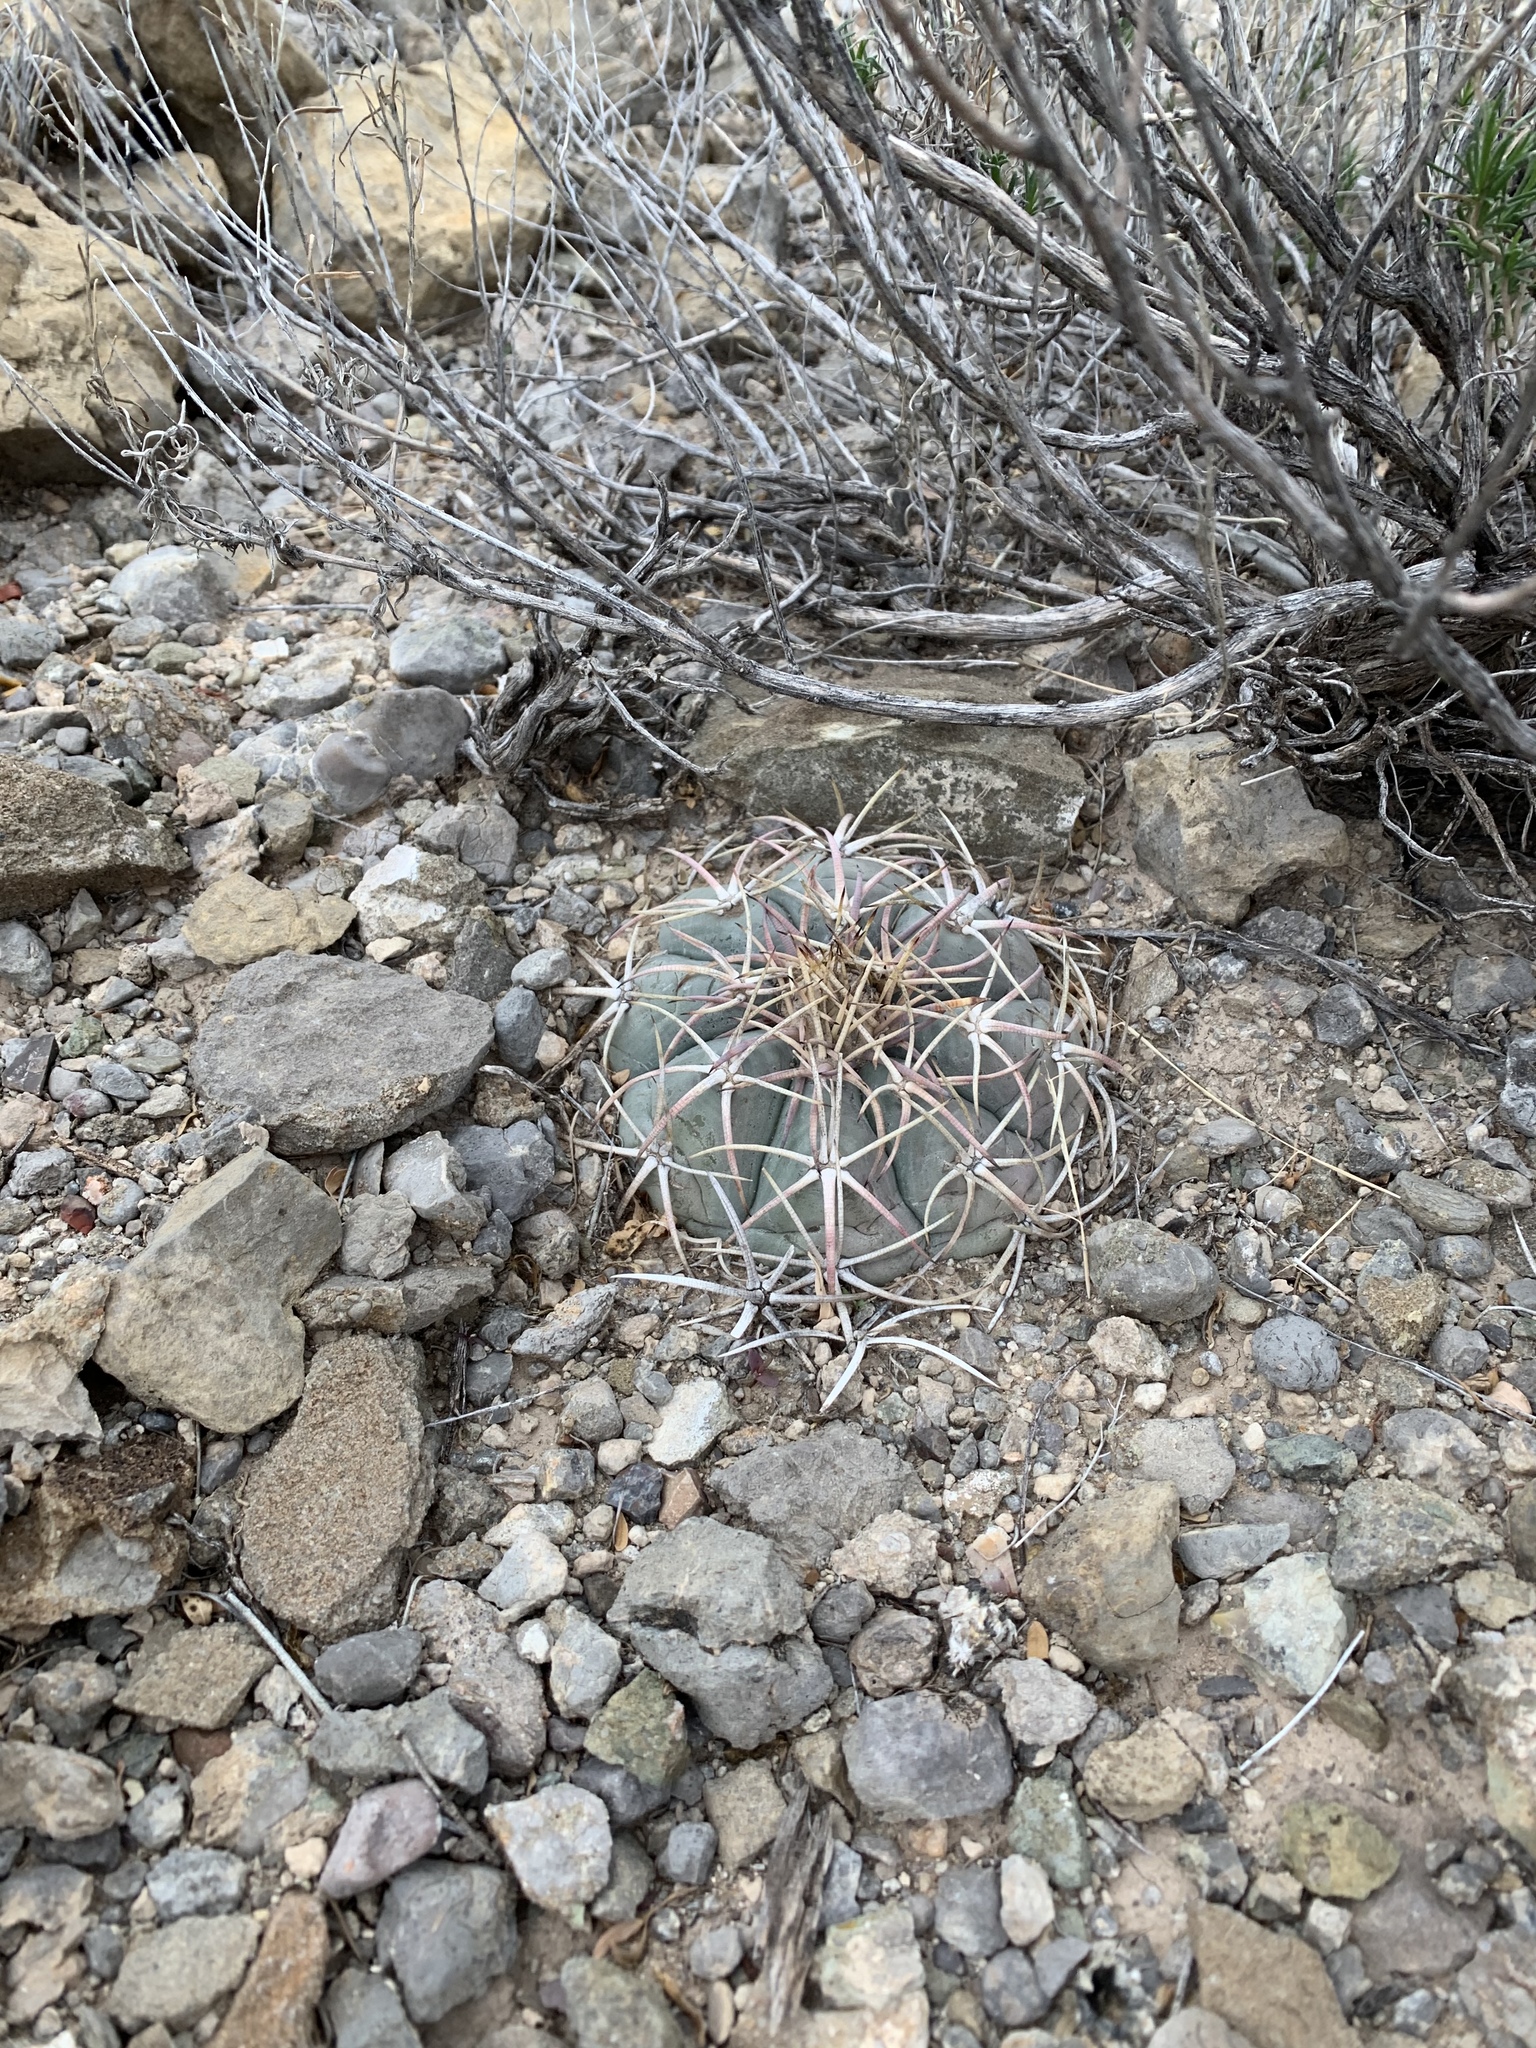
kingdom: Plantae
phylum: Tracheophyta
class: Magnoliopsida
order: Caryophyllales
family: Cactaceae
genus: Echinocactus
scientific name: Echinocactus horizonthalonius
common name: Devilshead
